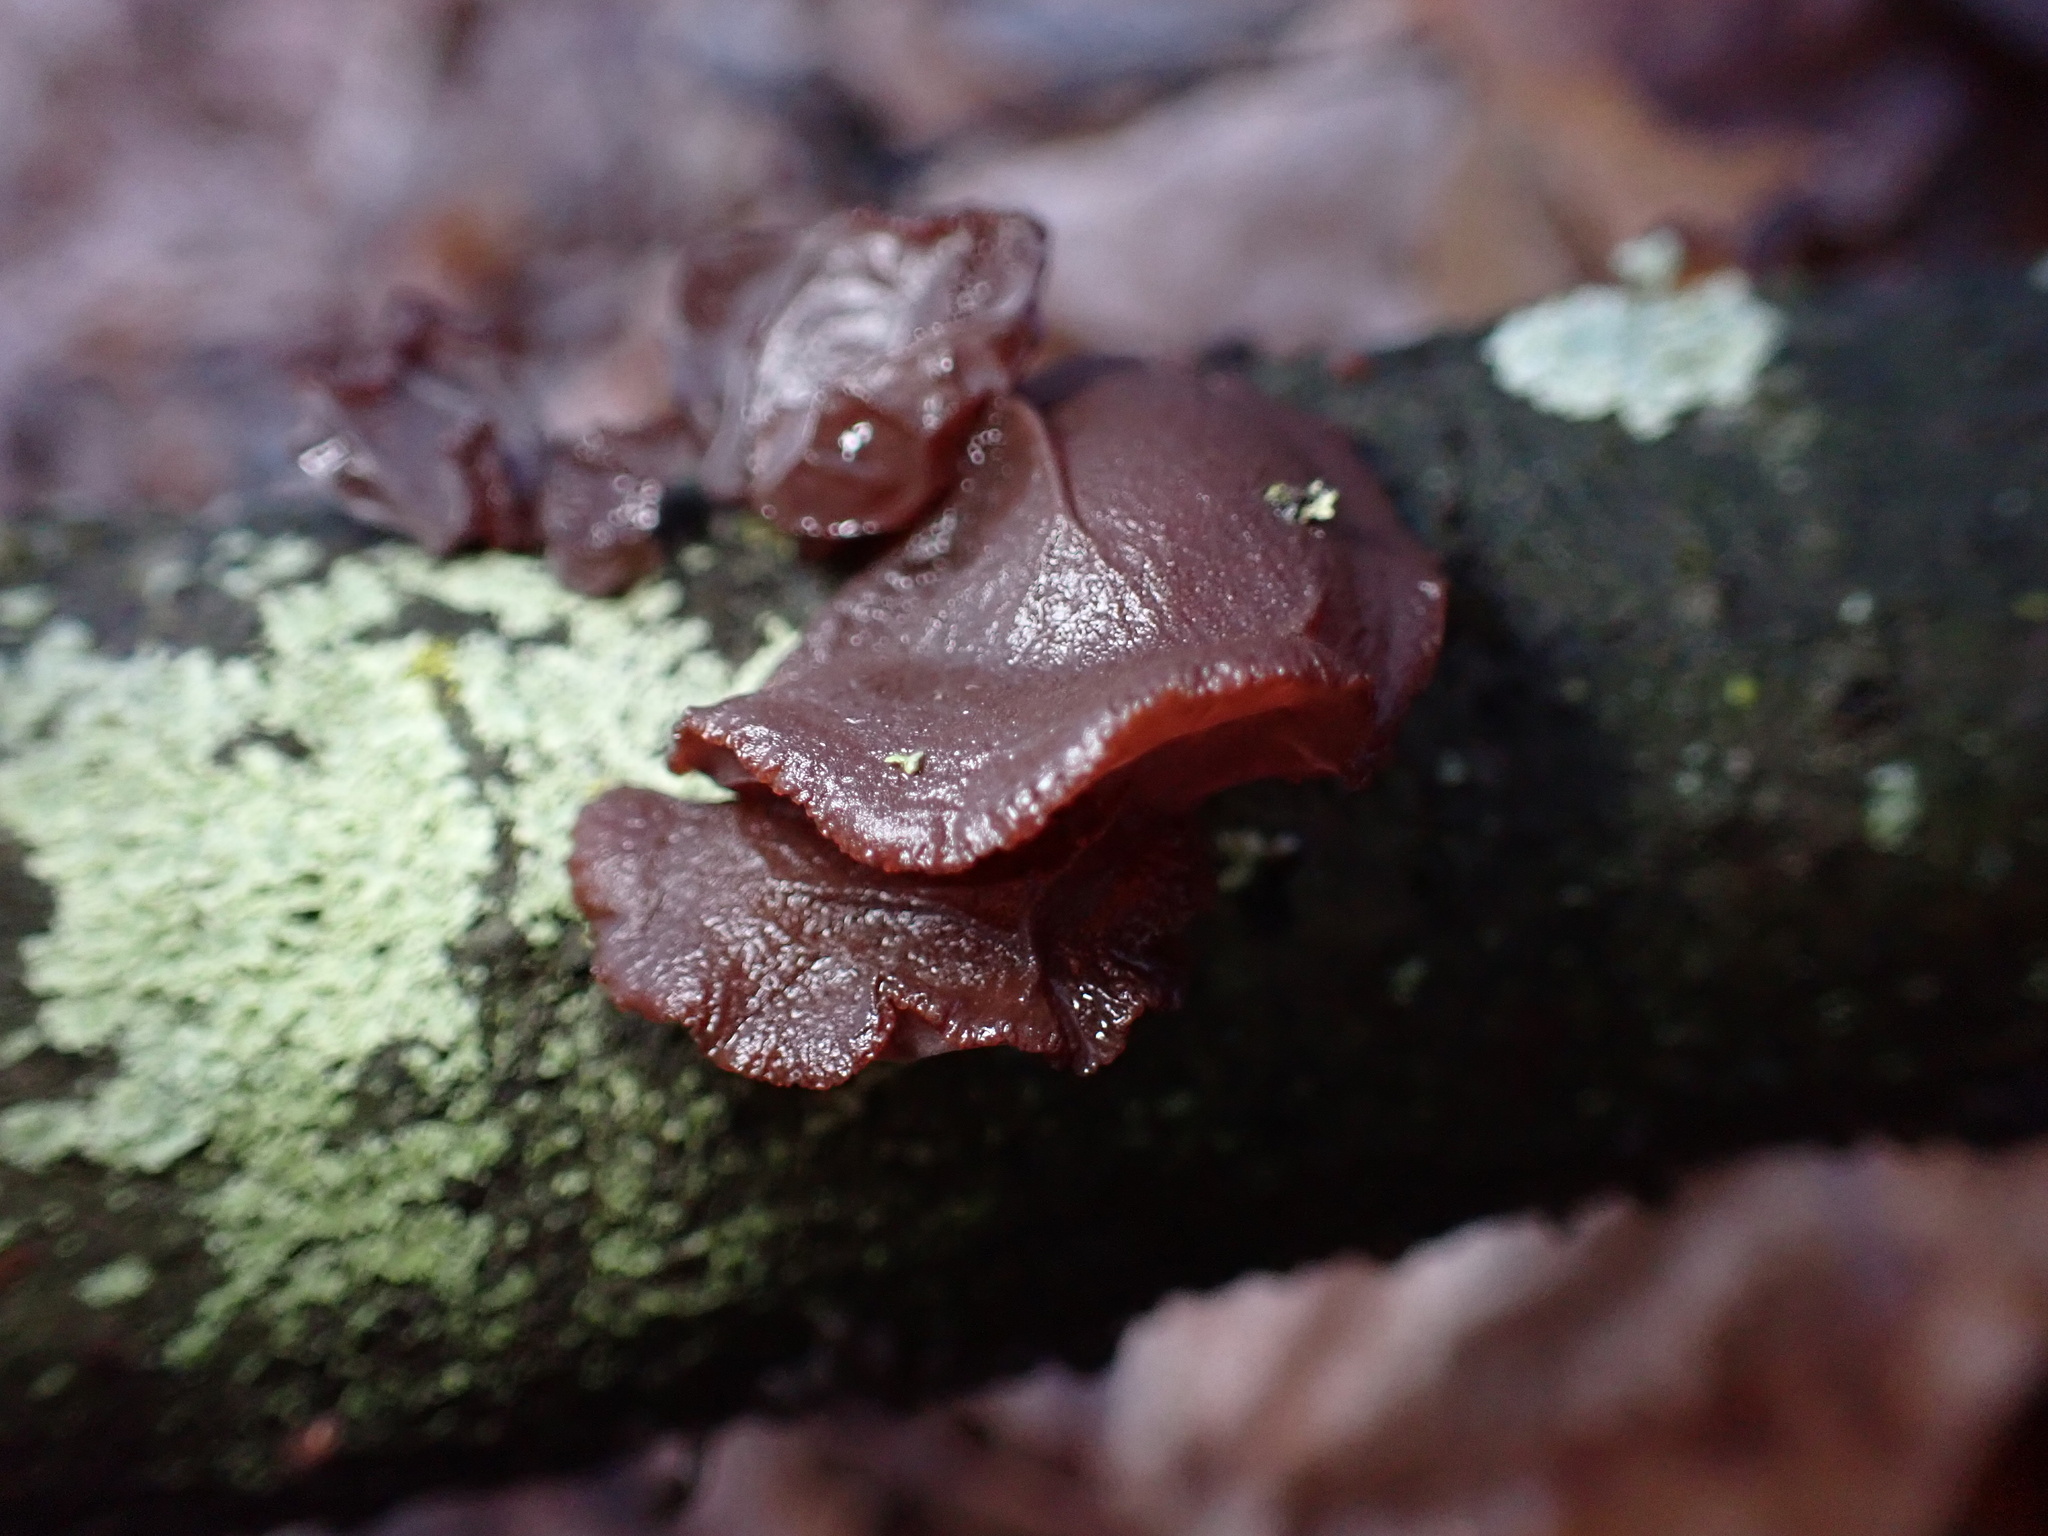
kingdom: Fungi
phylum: Basidiomycota
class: Agaricomycetes
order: Auriculariales
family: Auriculariaceae
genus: Exidia
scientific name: Exidia
